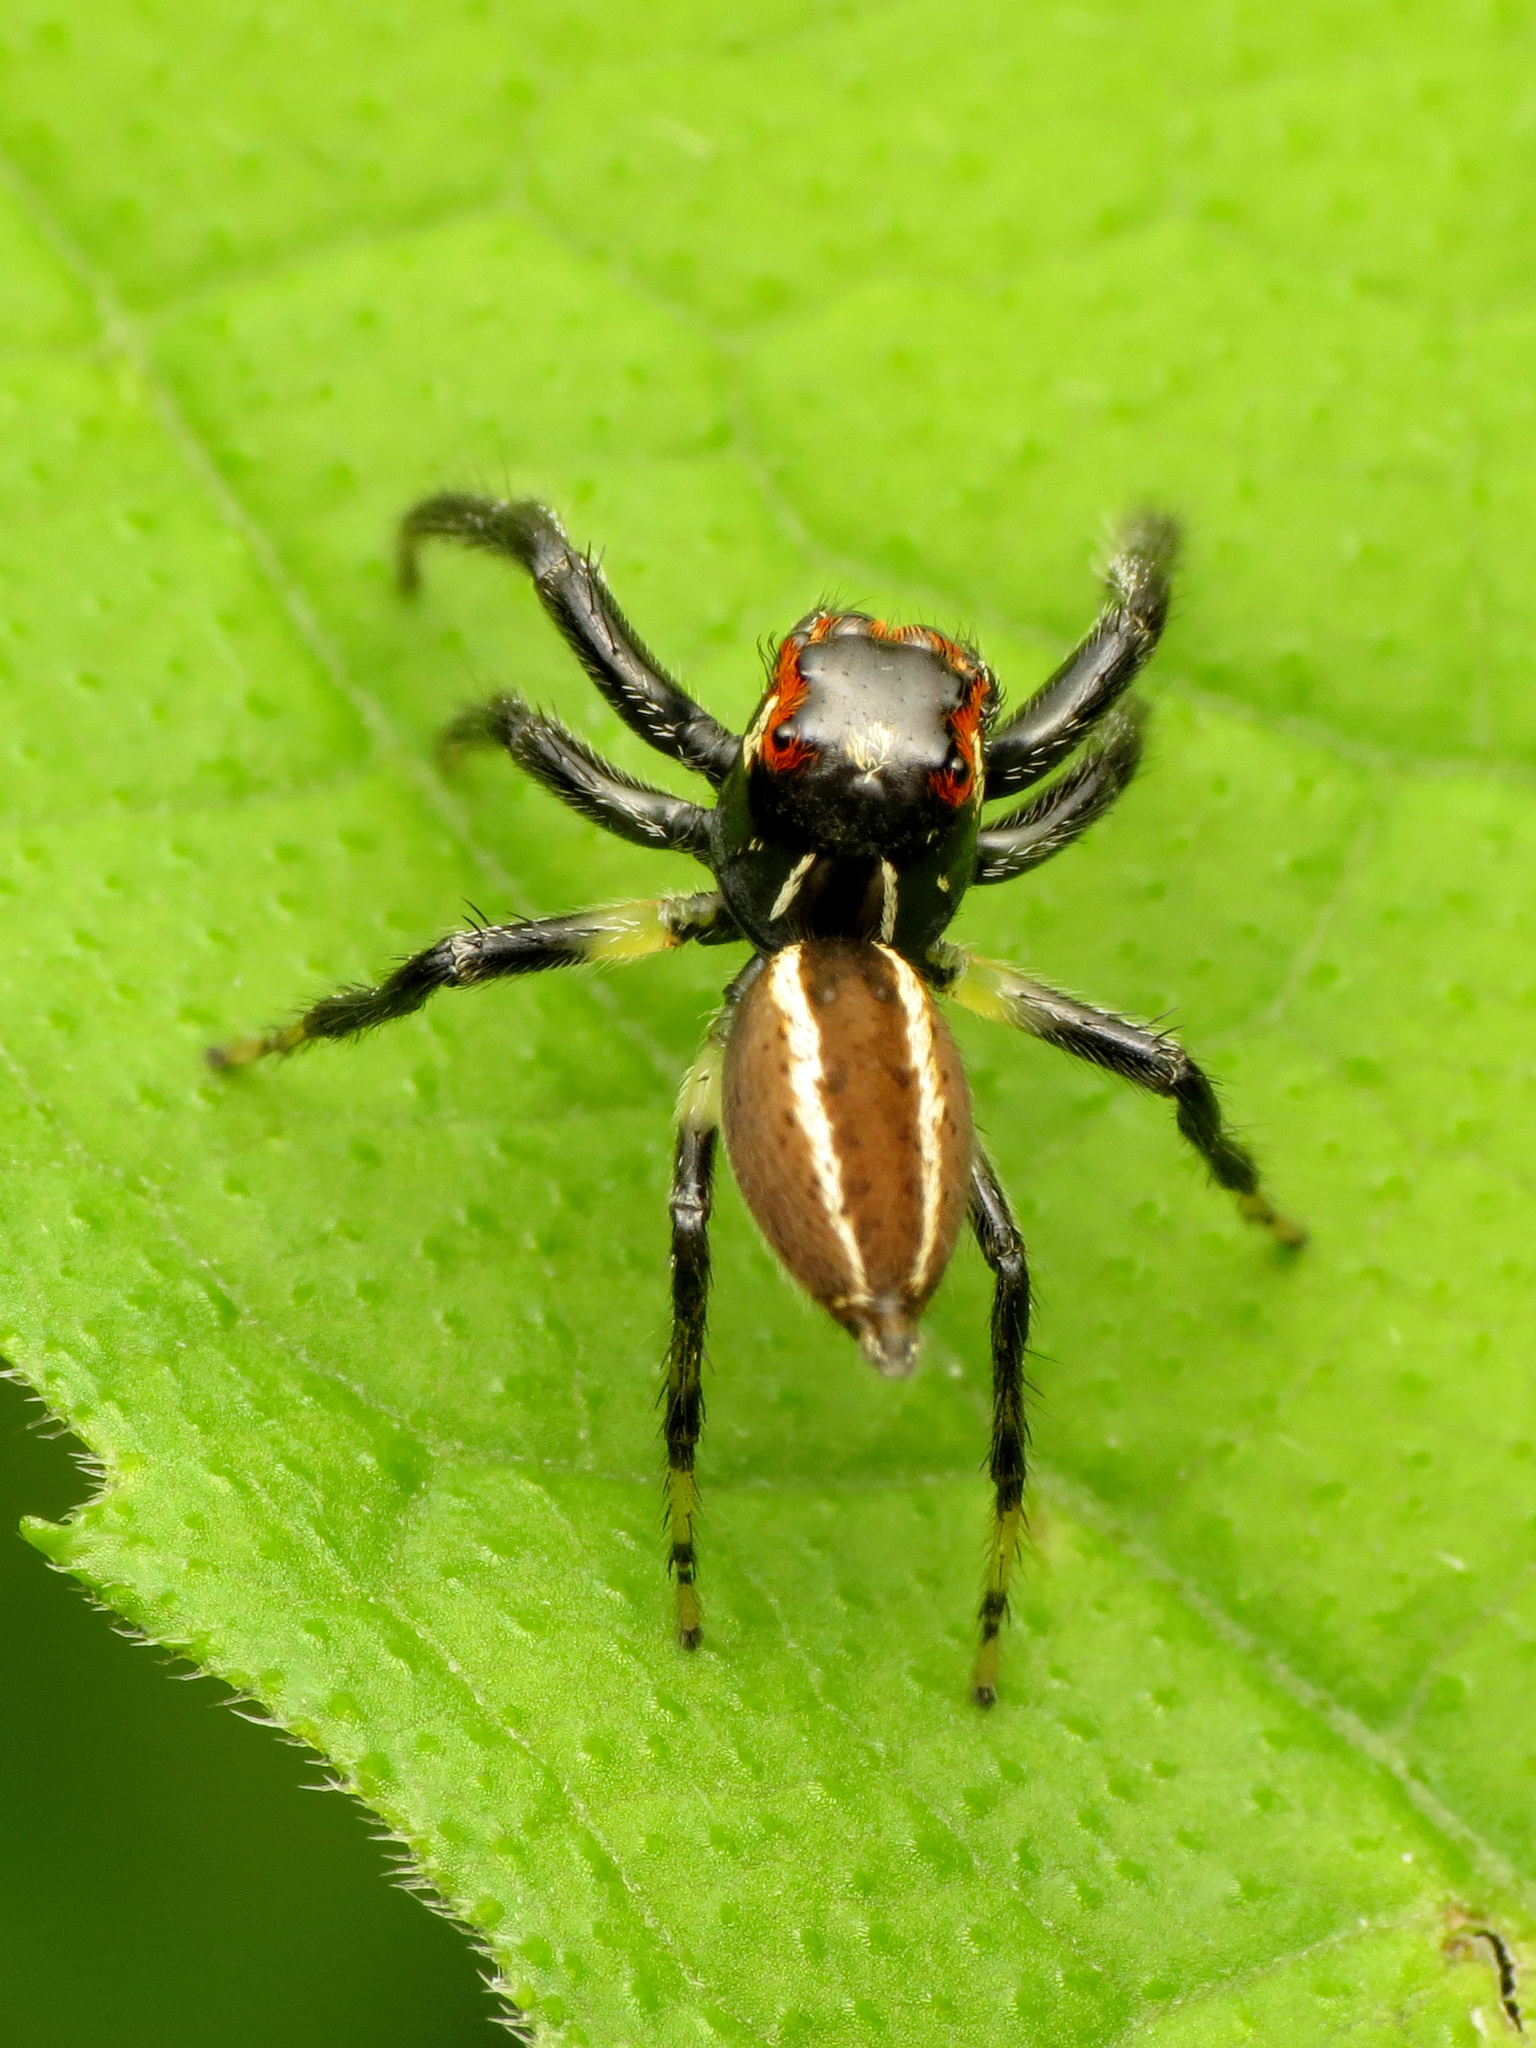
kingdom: Animalia
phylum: Arthropoda
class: Arachnida
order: Araneae
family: Salticidae
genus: Colonus
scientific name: Colonus sylvanus
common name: Jumping spiders
